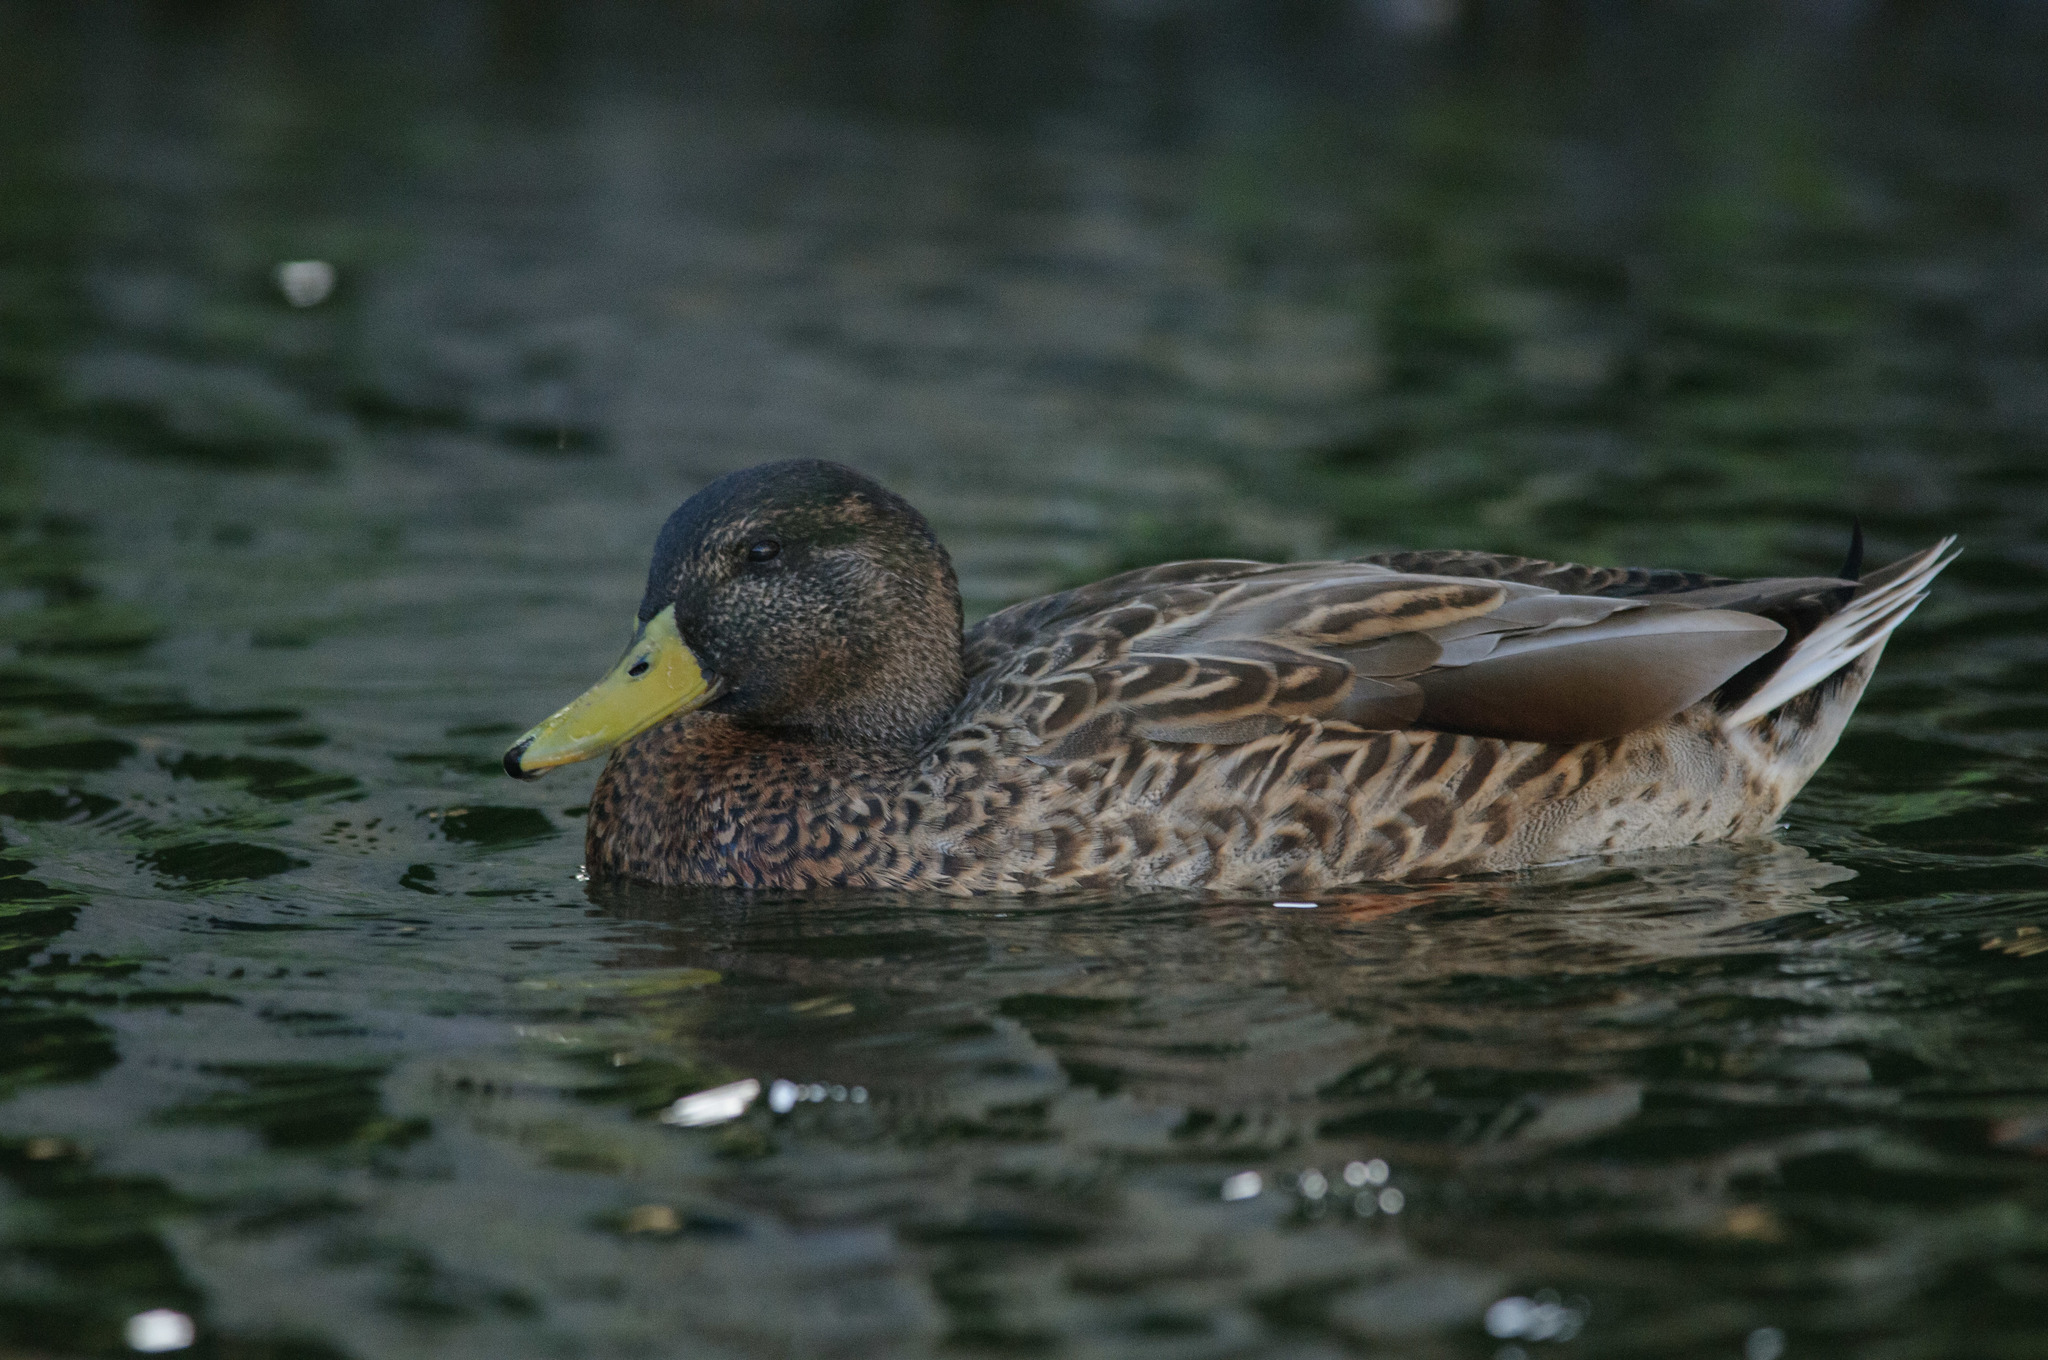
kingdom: Animalia
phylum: Chordata
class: Aves
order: Anseriformes
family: Anatidae
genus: Anas
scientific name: Anas
